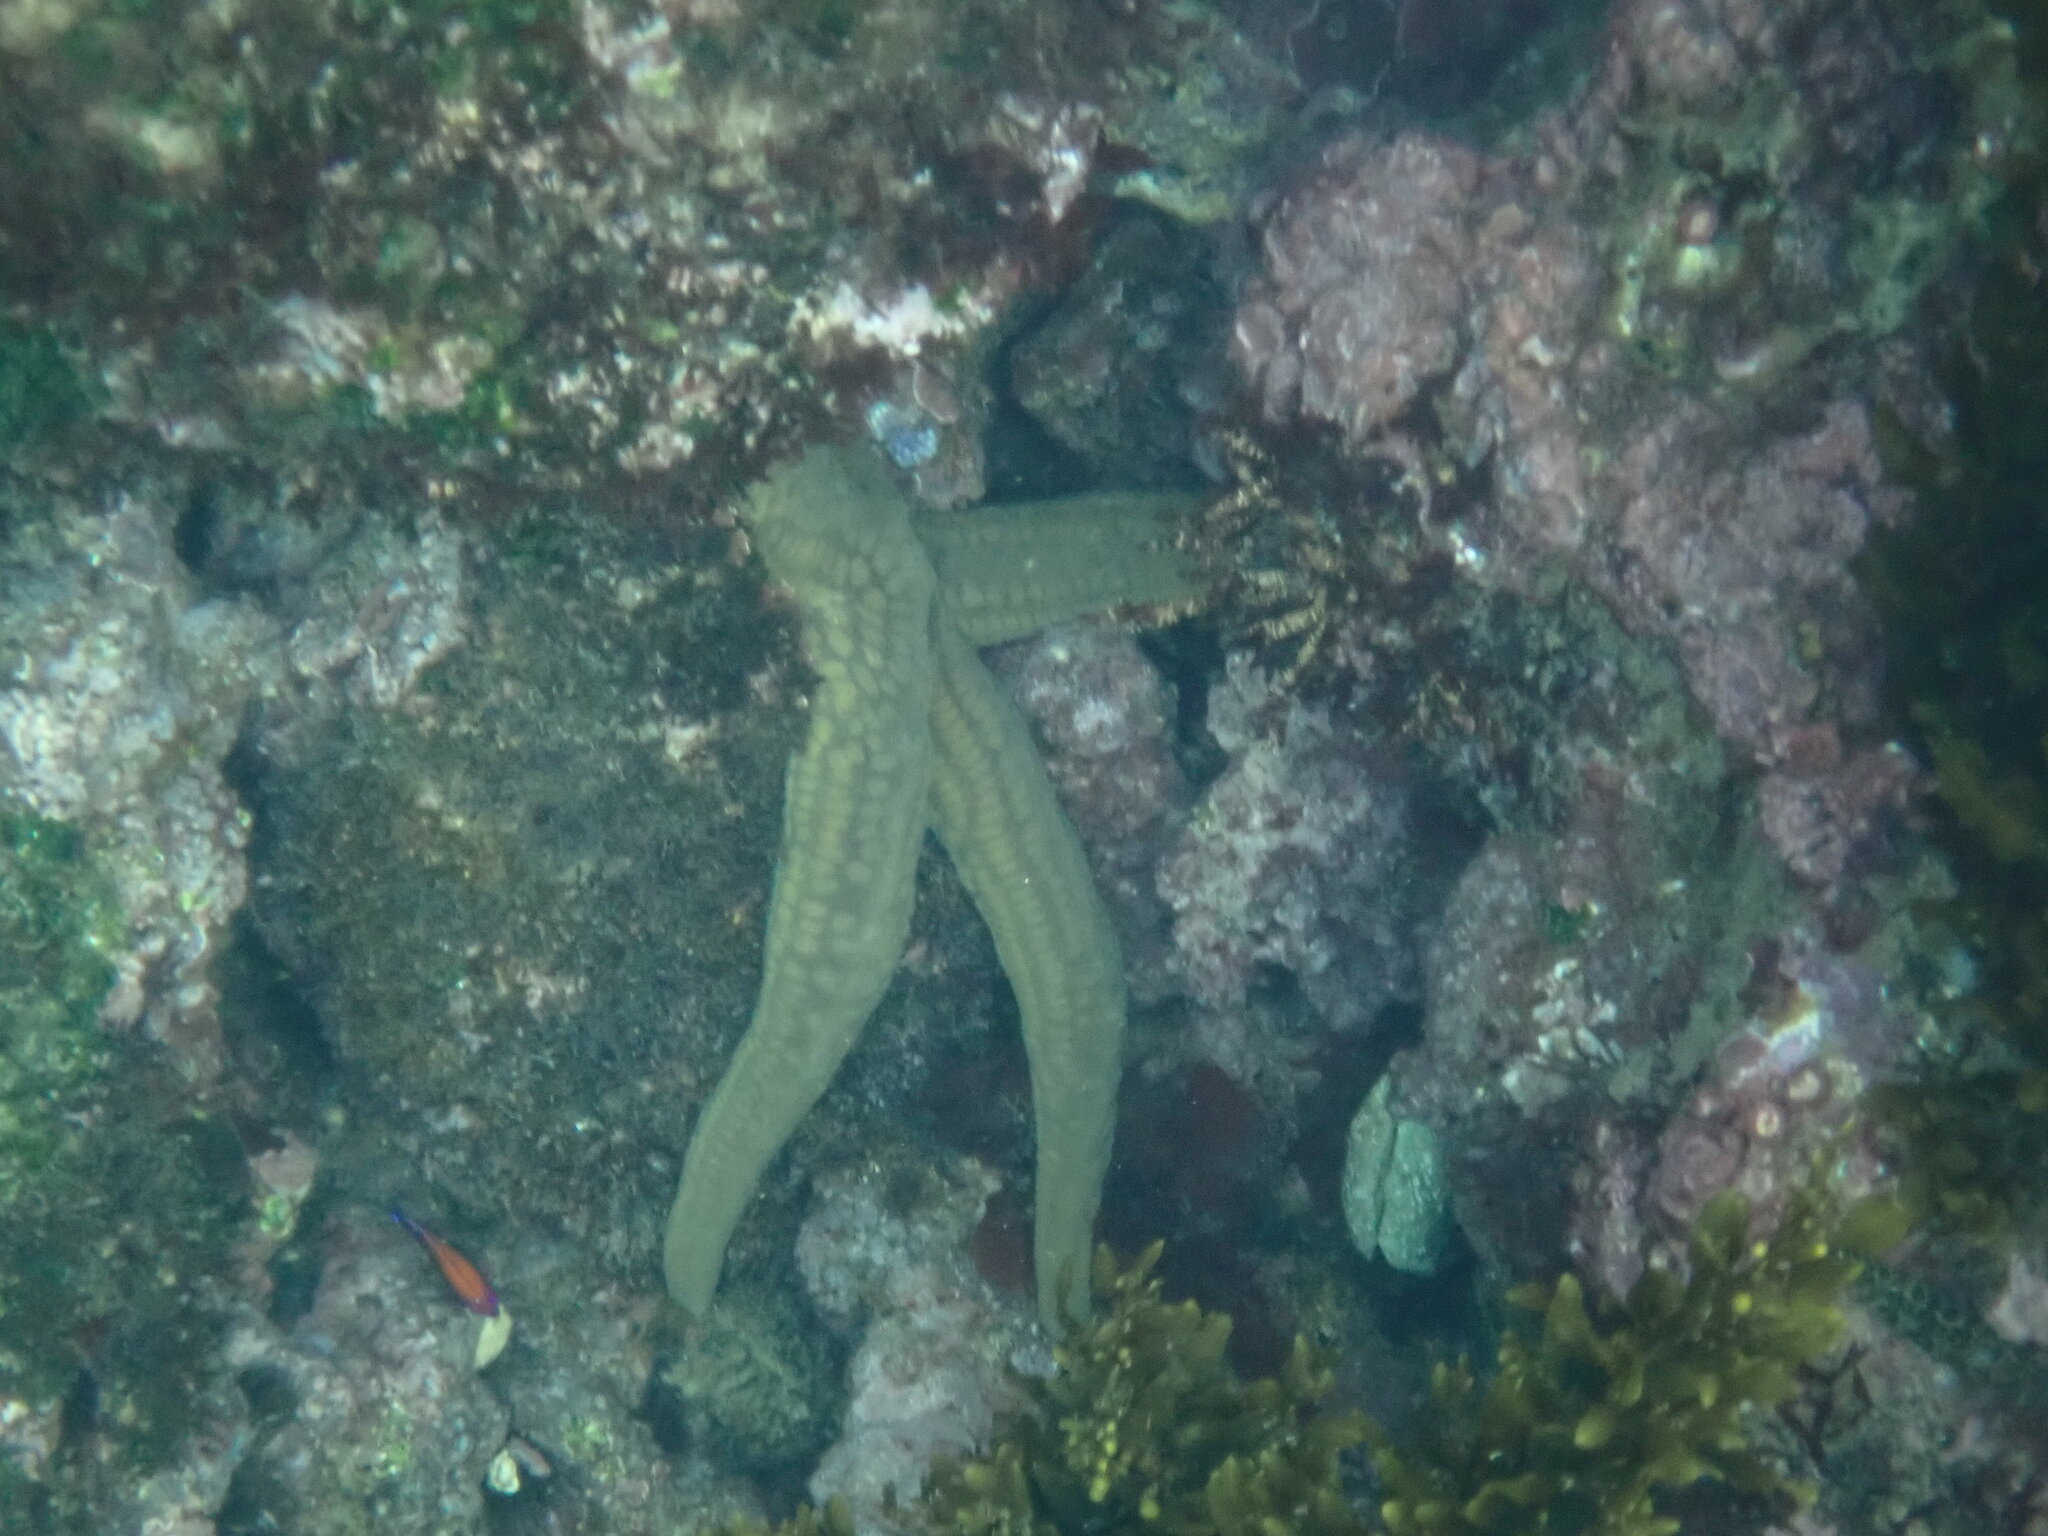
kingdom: Animalia
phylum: Echinodermata
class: Asteroidea
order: Valvatida
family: Ophidiasteridae
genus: Pharia
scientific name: Pharia pyramidata
